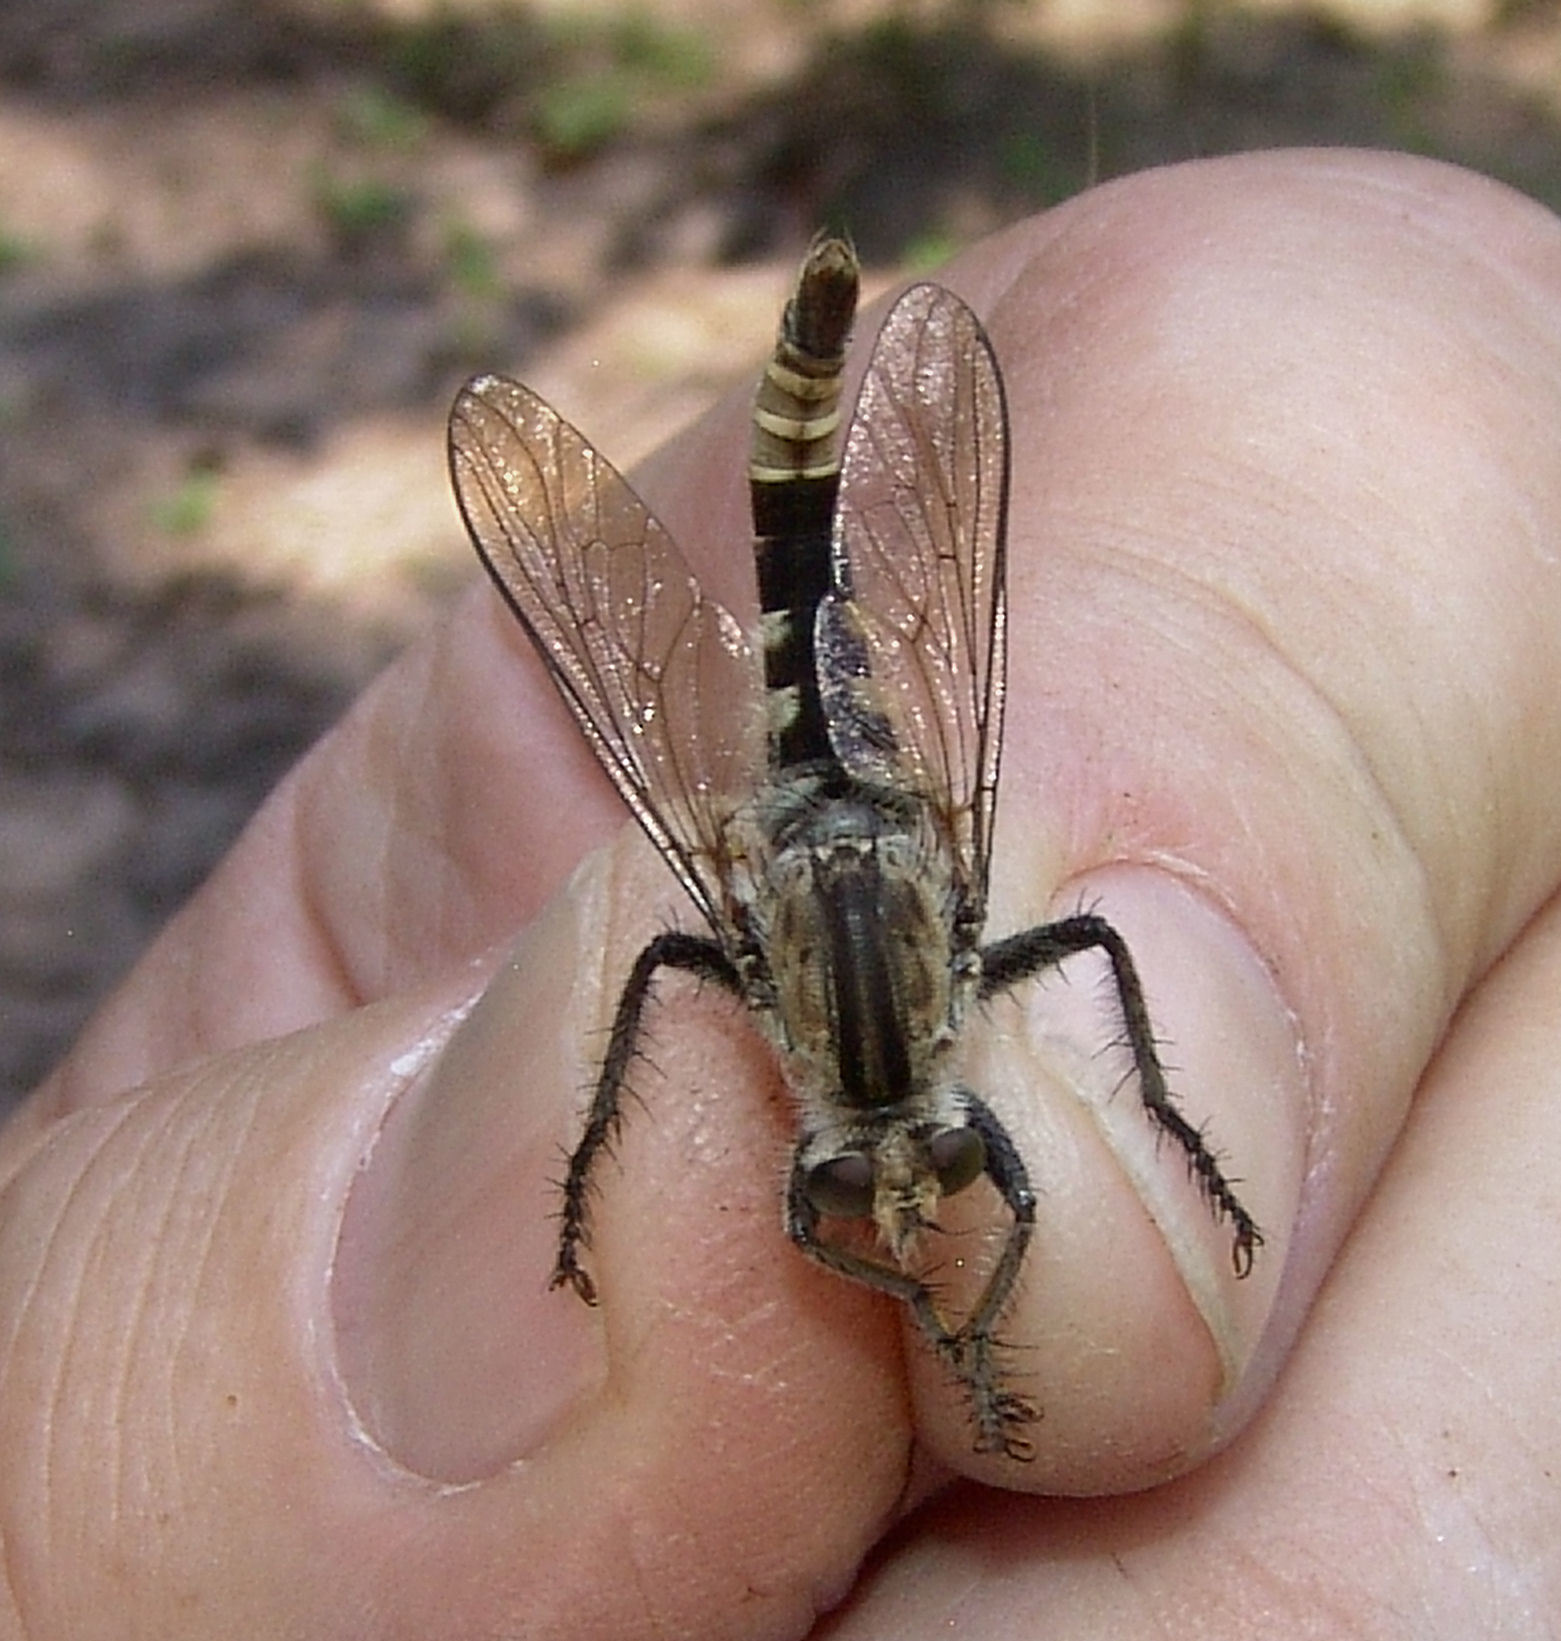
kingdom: Animalia
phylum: Arthropoda
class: Insecta
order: Diptera
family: Asilidae
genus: Triorla
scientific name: Triorla interrupta
